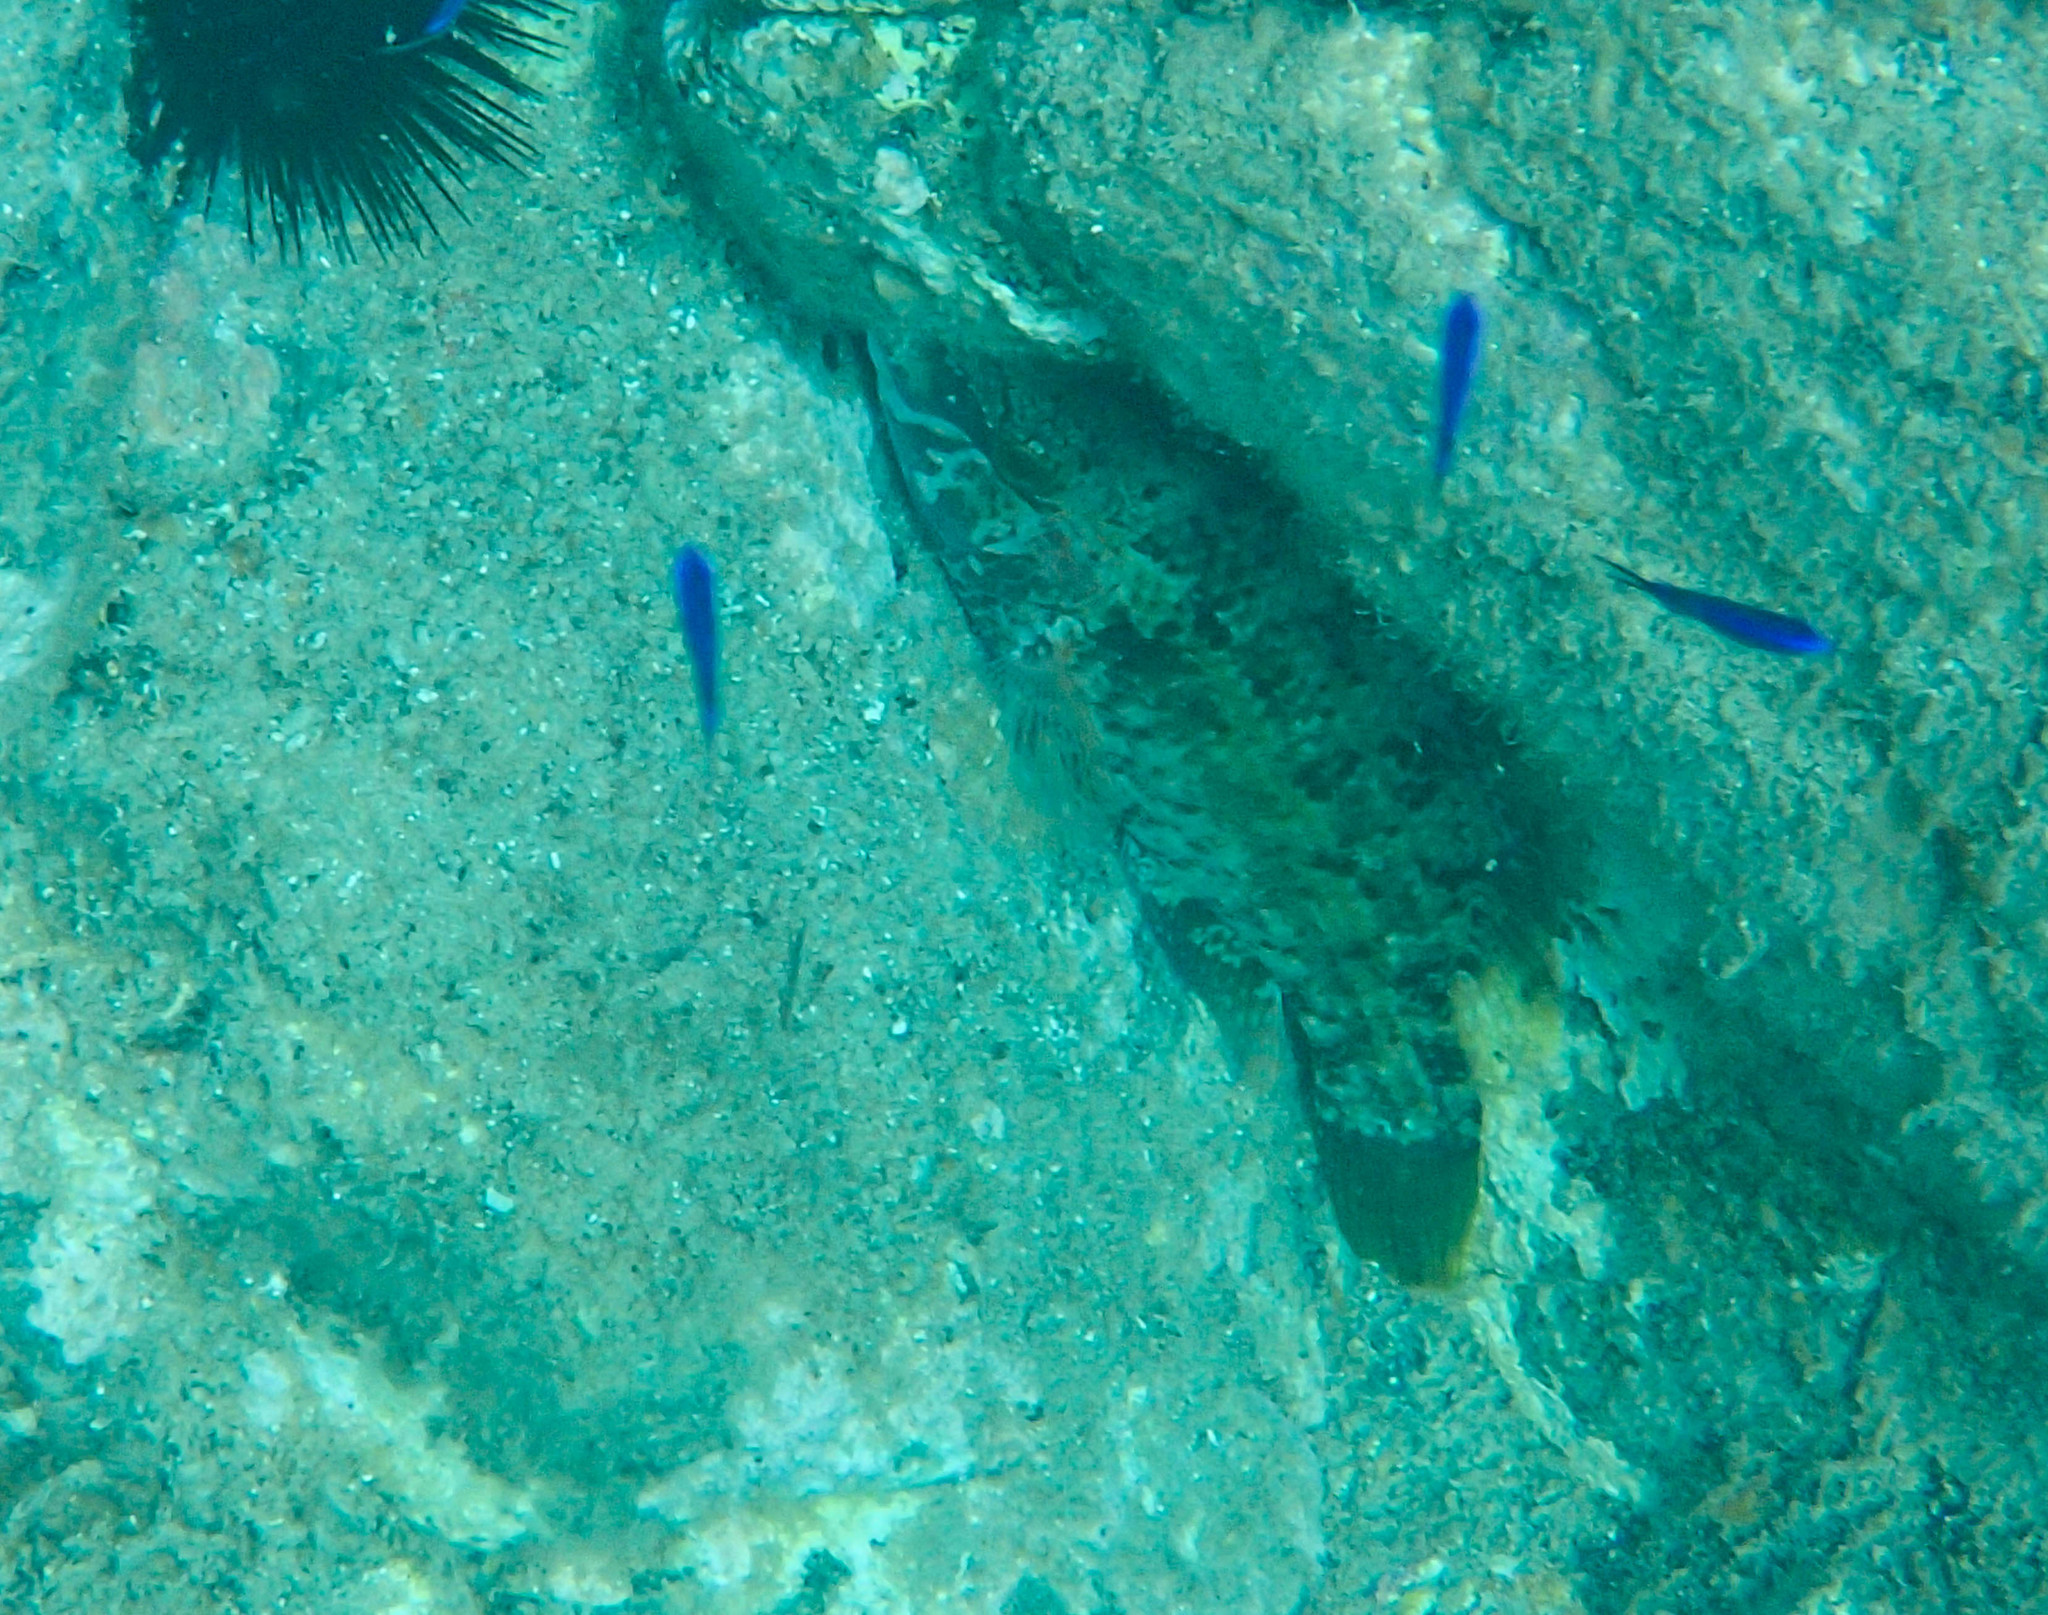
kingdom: Animalia
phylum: Chordata
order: Perciformes
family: Labridae
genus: Symphodus
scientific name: Symphodus tinca
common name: Peacock wrasse
